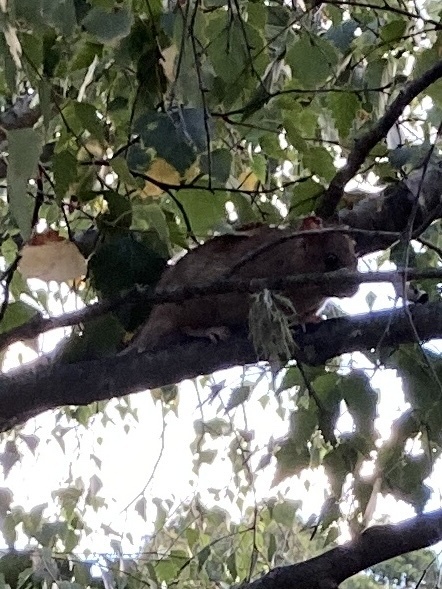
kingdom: Animalia
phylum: Chordata
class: Mammalia
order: Rodentia
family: Muridae
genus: Rattus
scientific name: Rattus rattus
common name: Black rat
